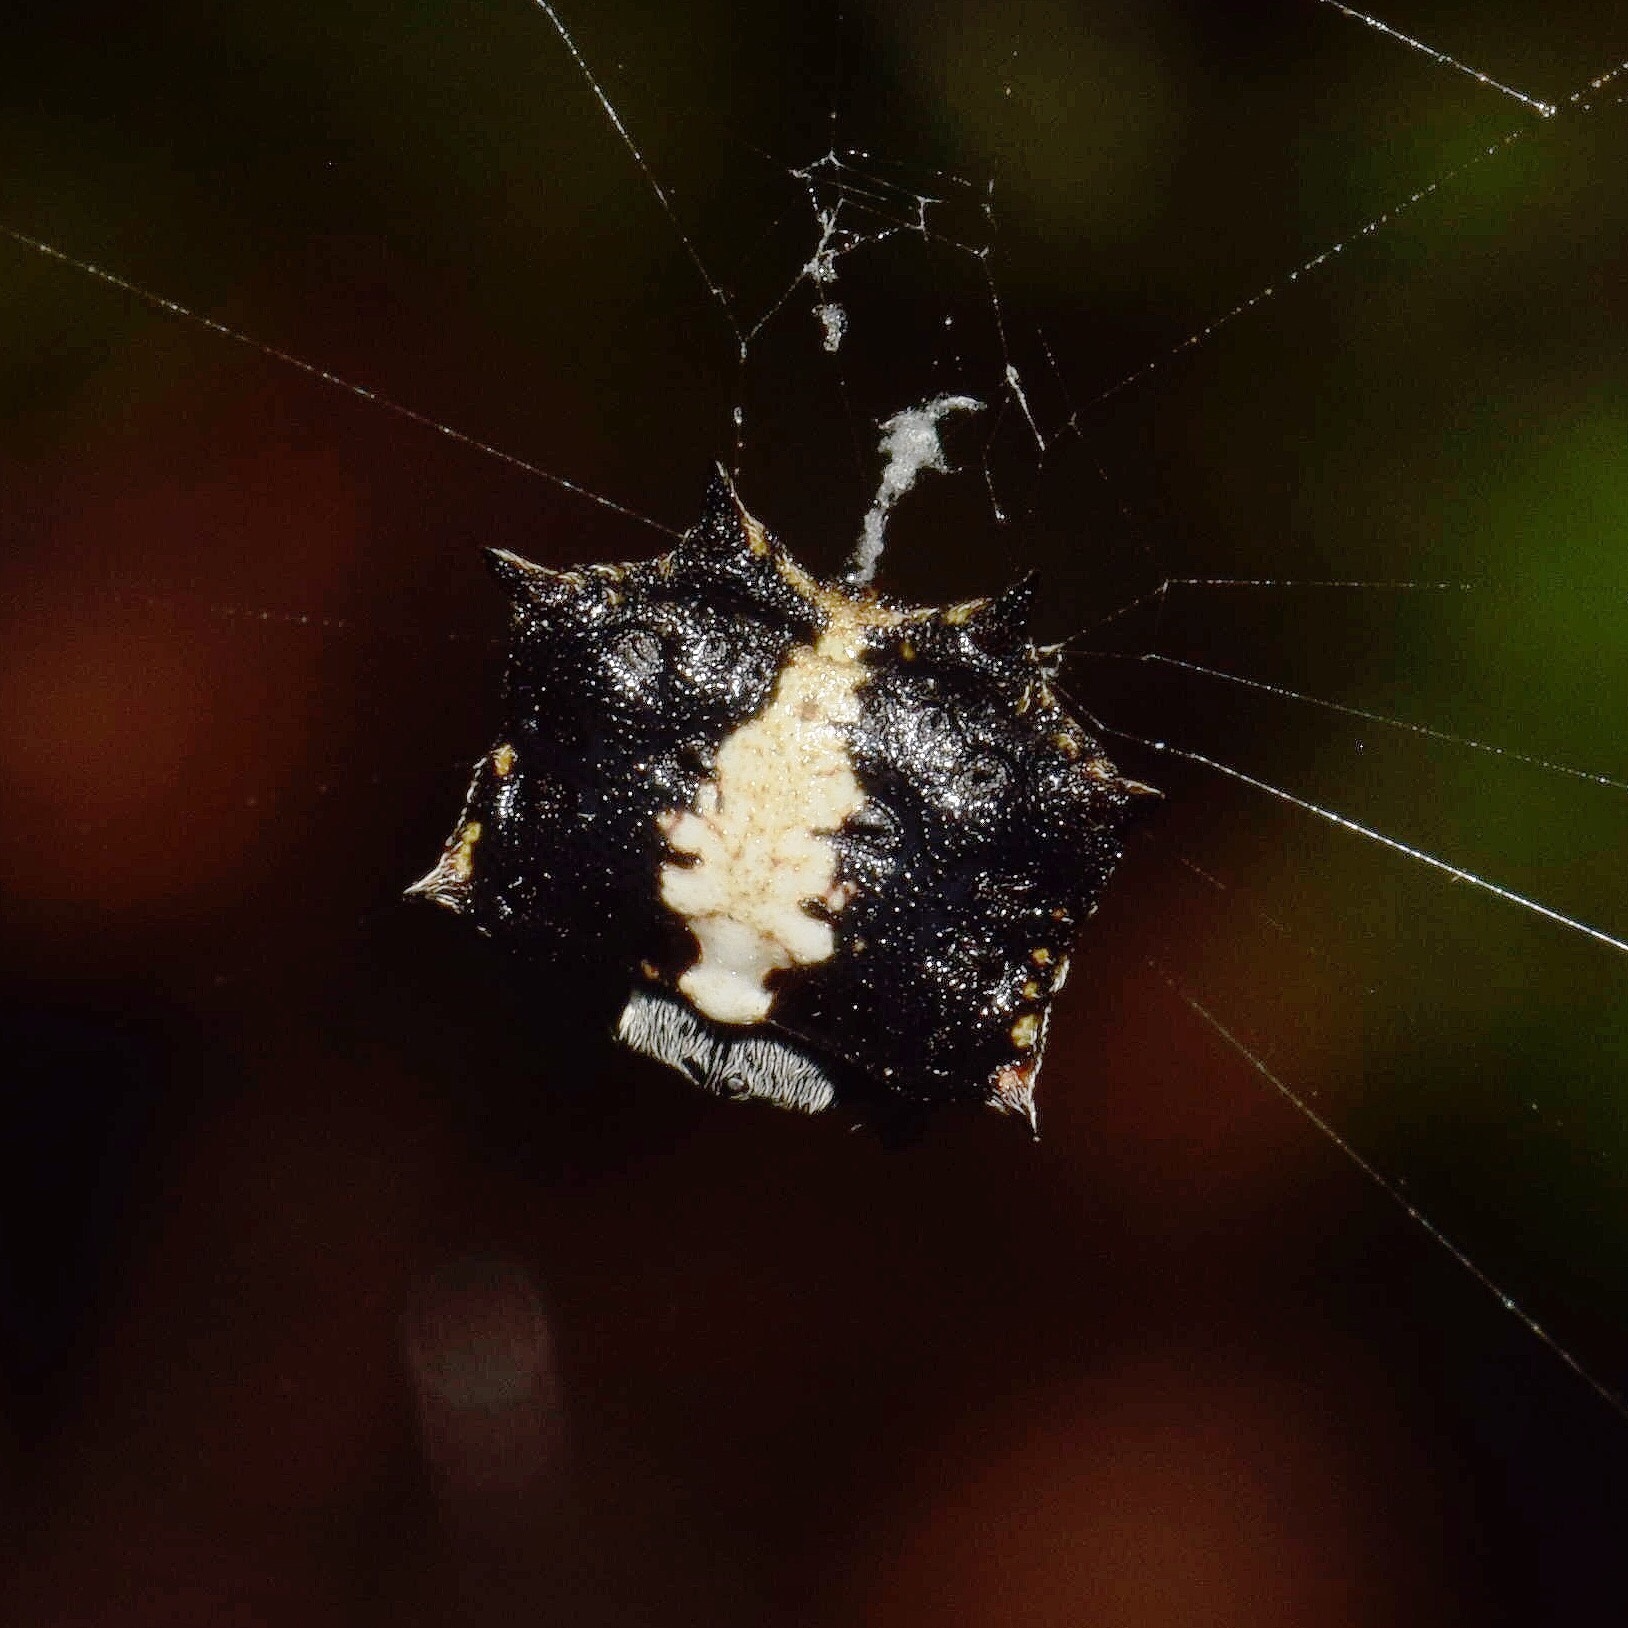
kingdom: Animalia
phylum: Arthropoda
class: Arachnida
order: Araneae
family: Araneidae
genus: Isoxya
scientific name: Isoxya tabulata
